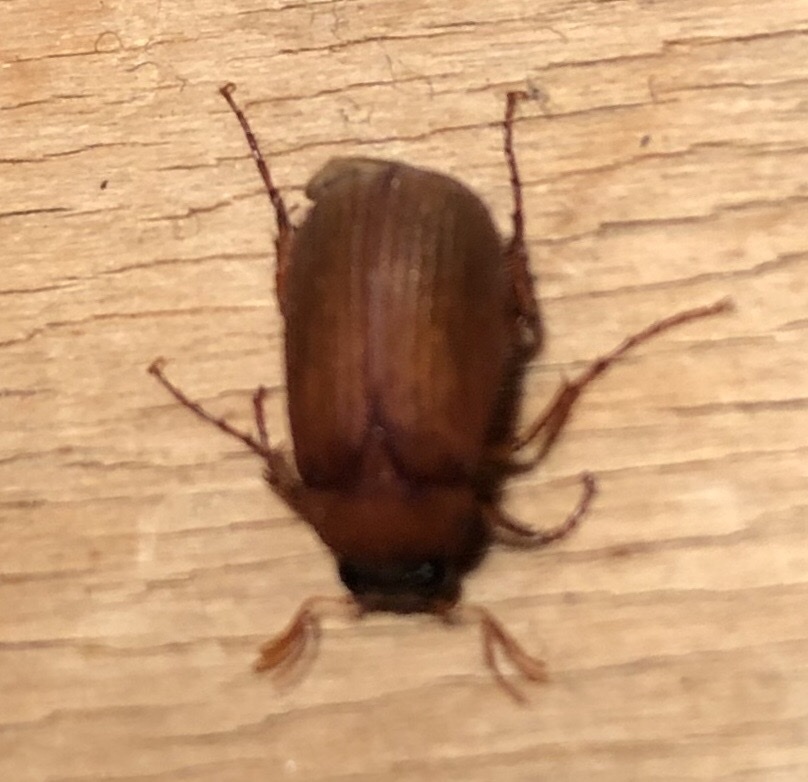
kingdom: Animalia
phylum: Arthropoda
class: Insecta
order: Coleoptera
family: Scarabaeidae
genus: Serica
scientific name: Serica brunnea
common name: Brown chafer
